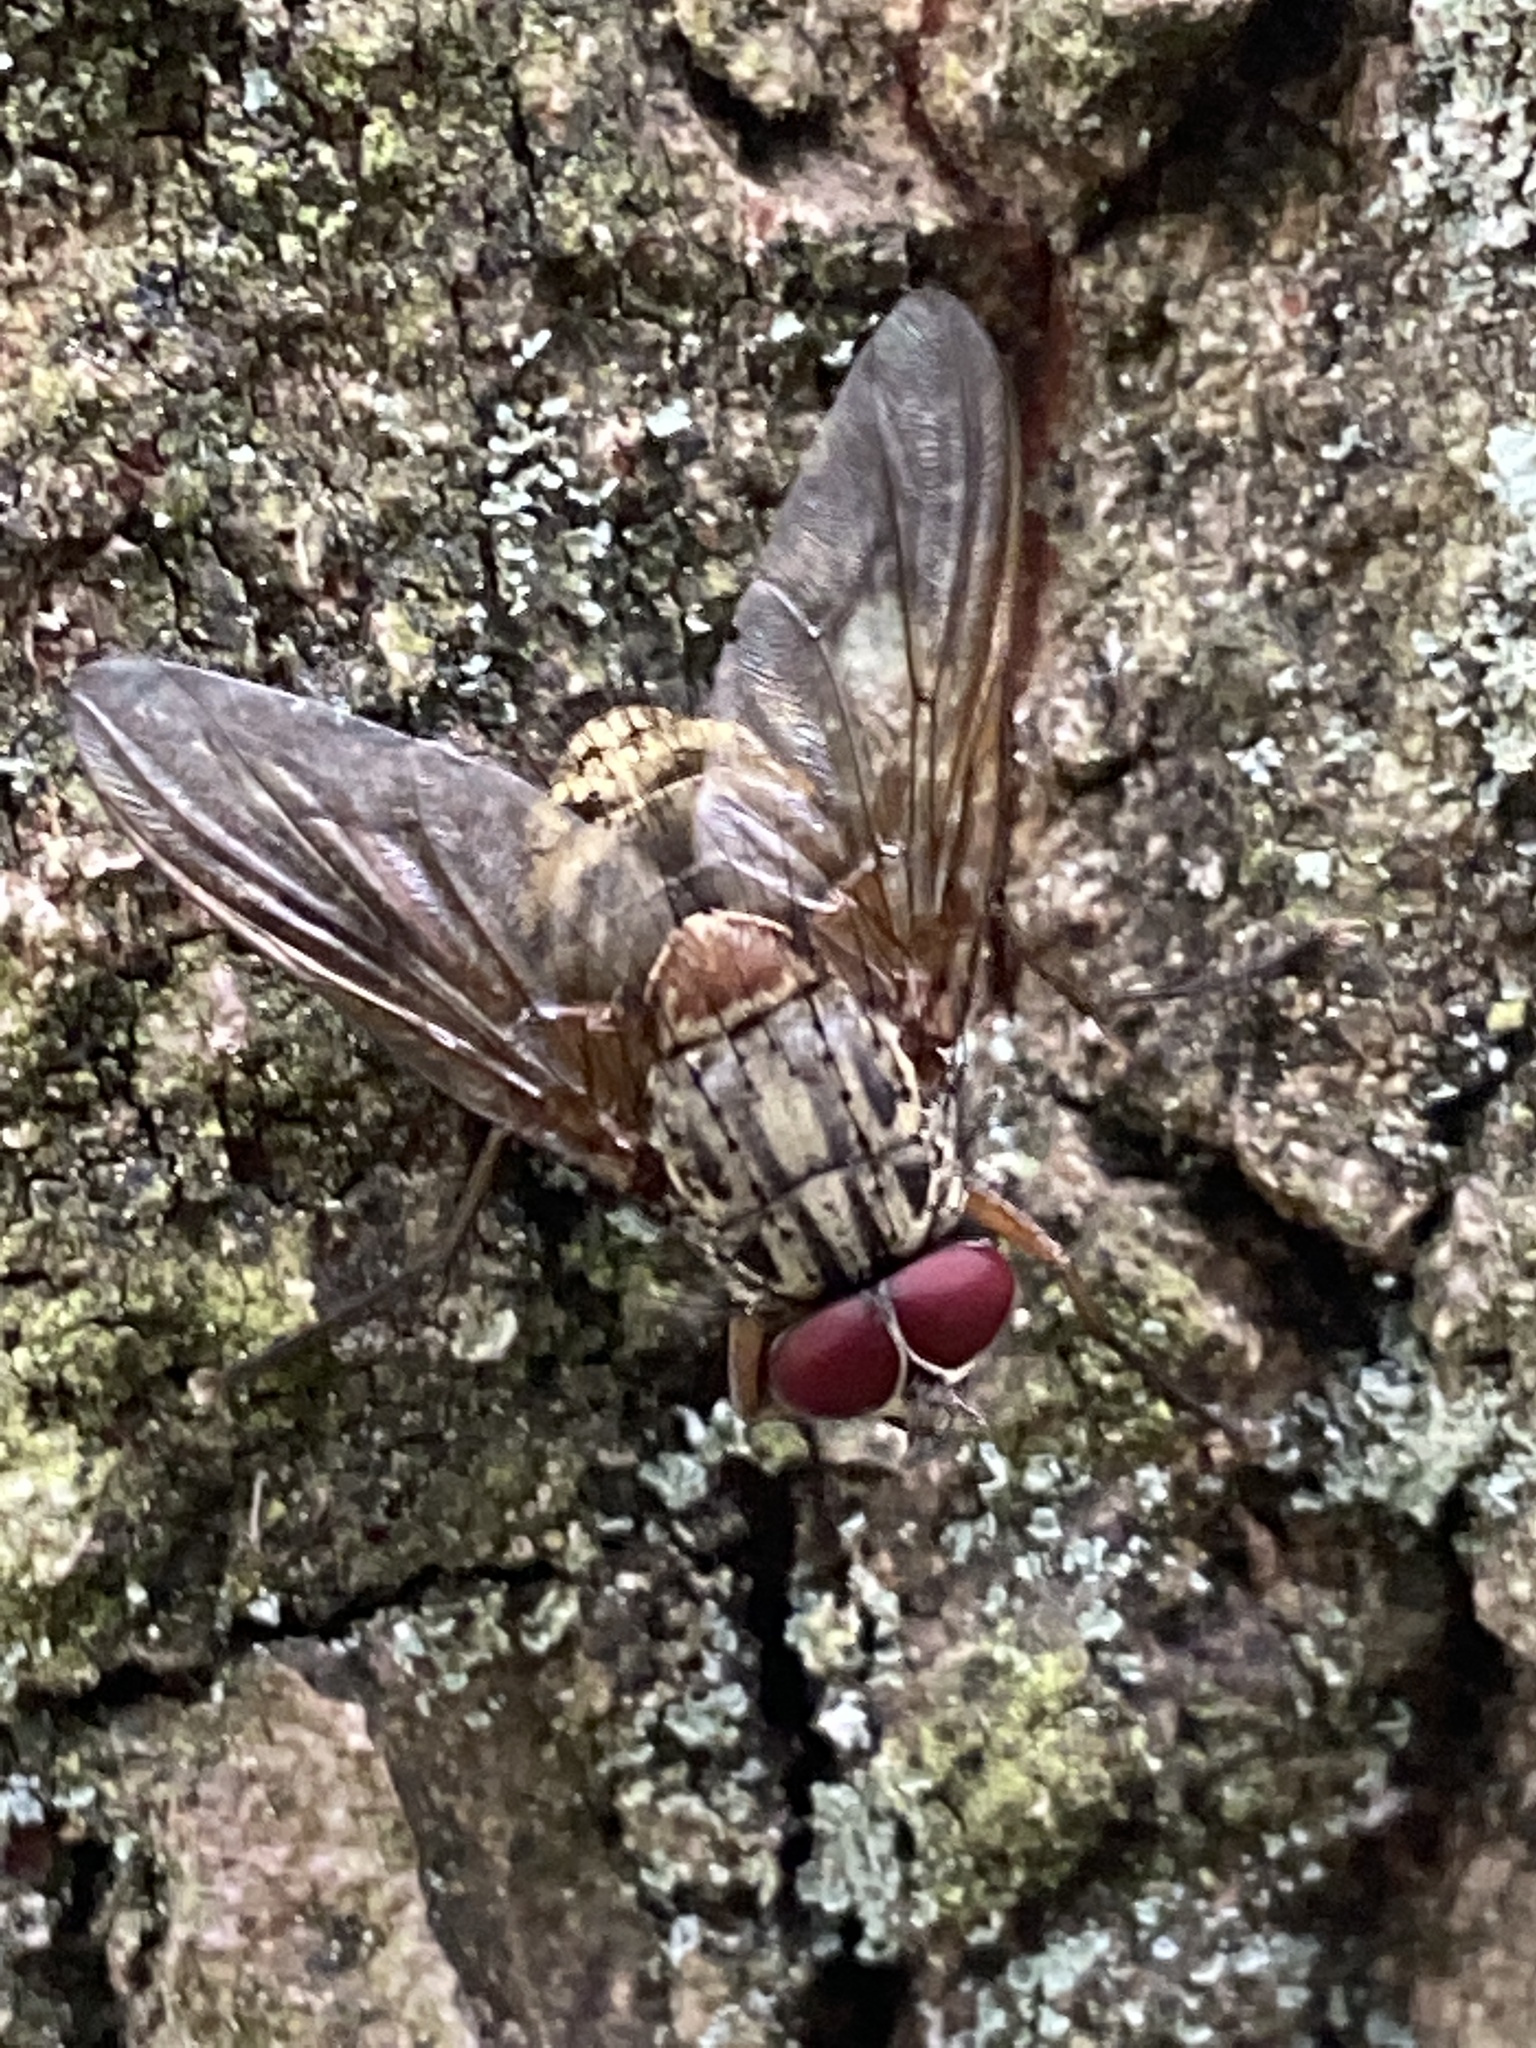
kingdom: Animalia
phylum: Arthropoda
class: Insecta
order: Diptera
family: Muscidae
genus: Phaonia
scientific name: Phaonia valida
